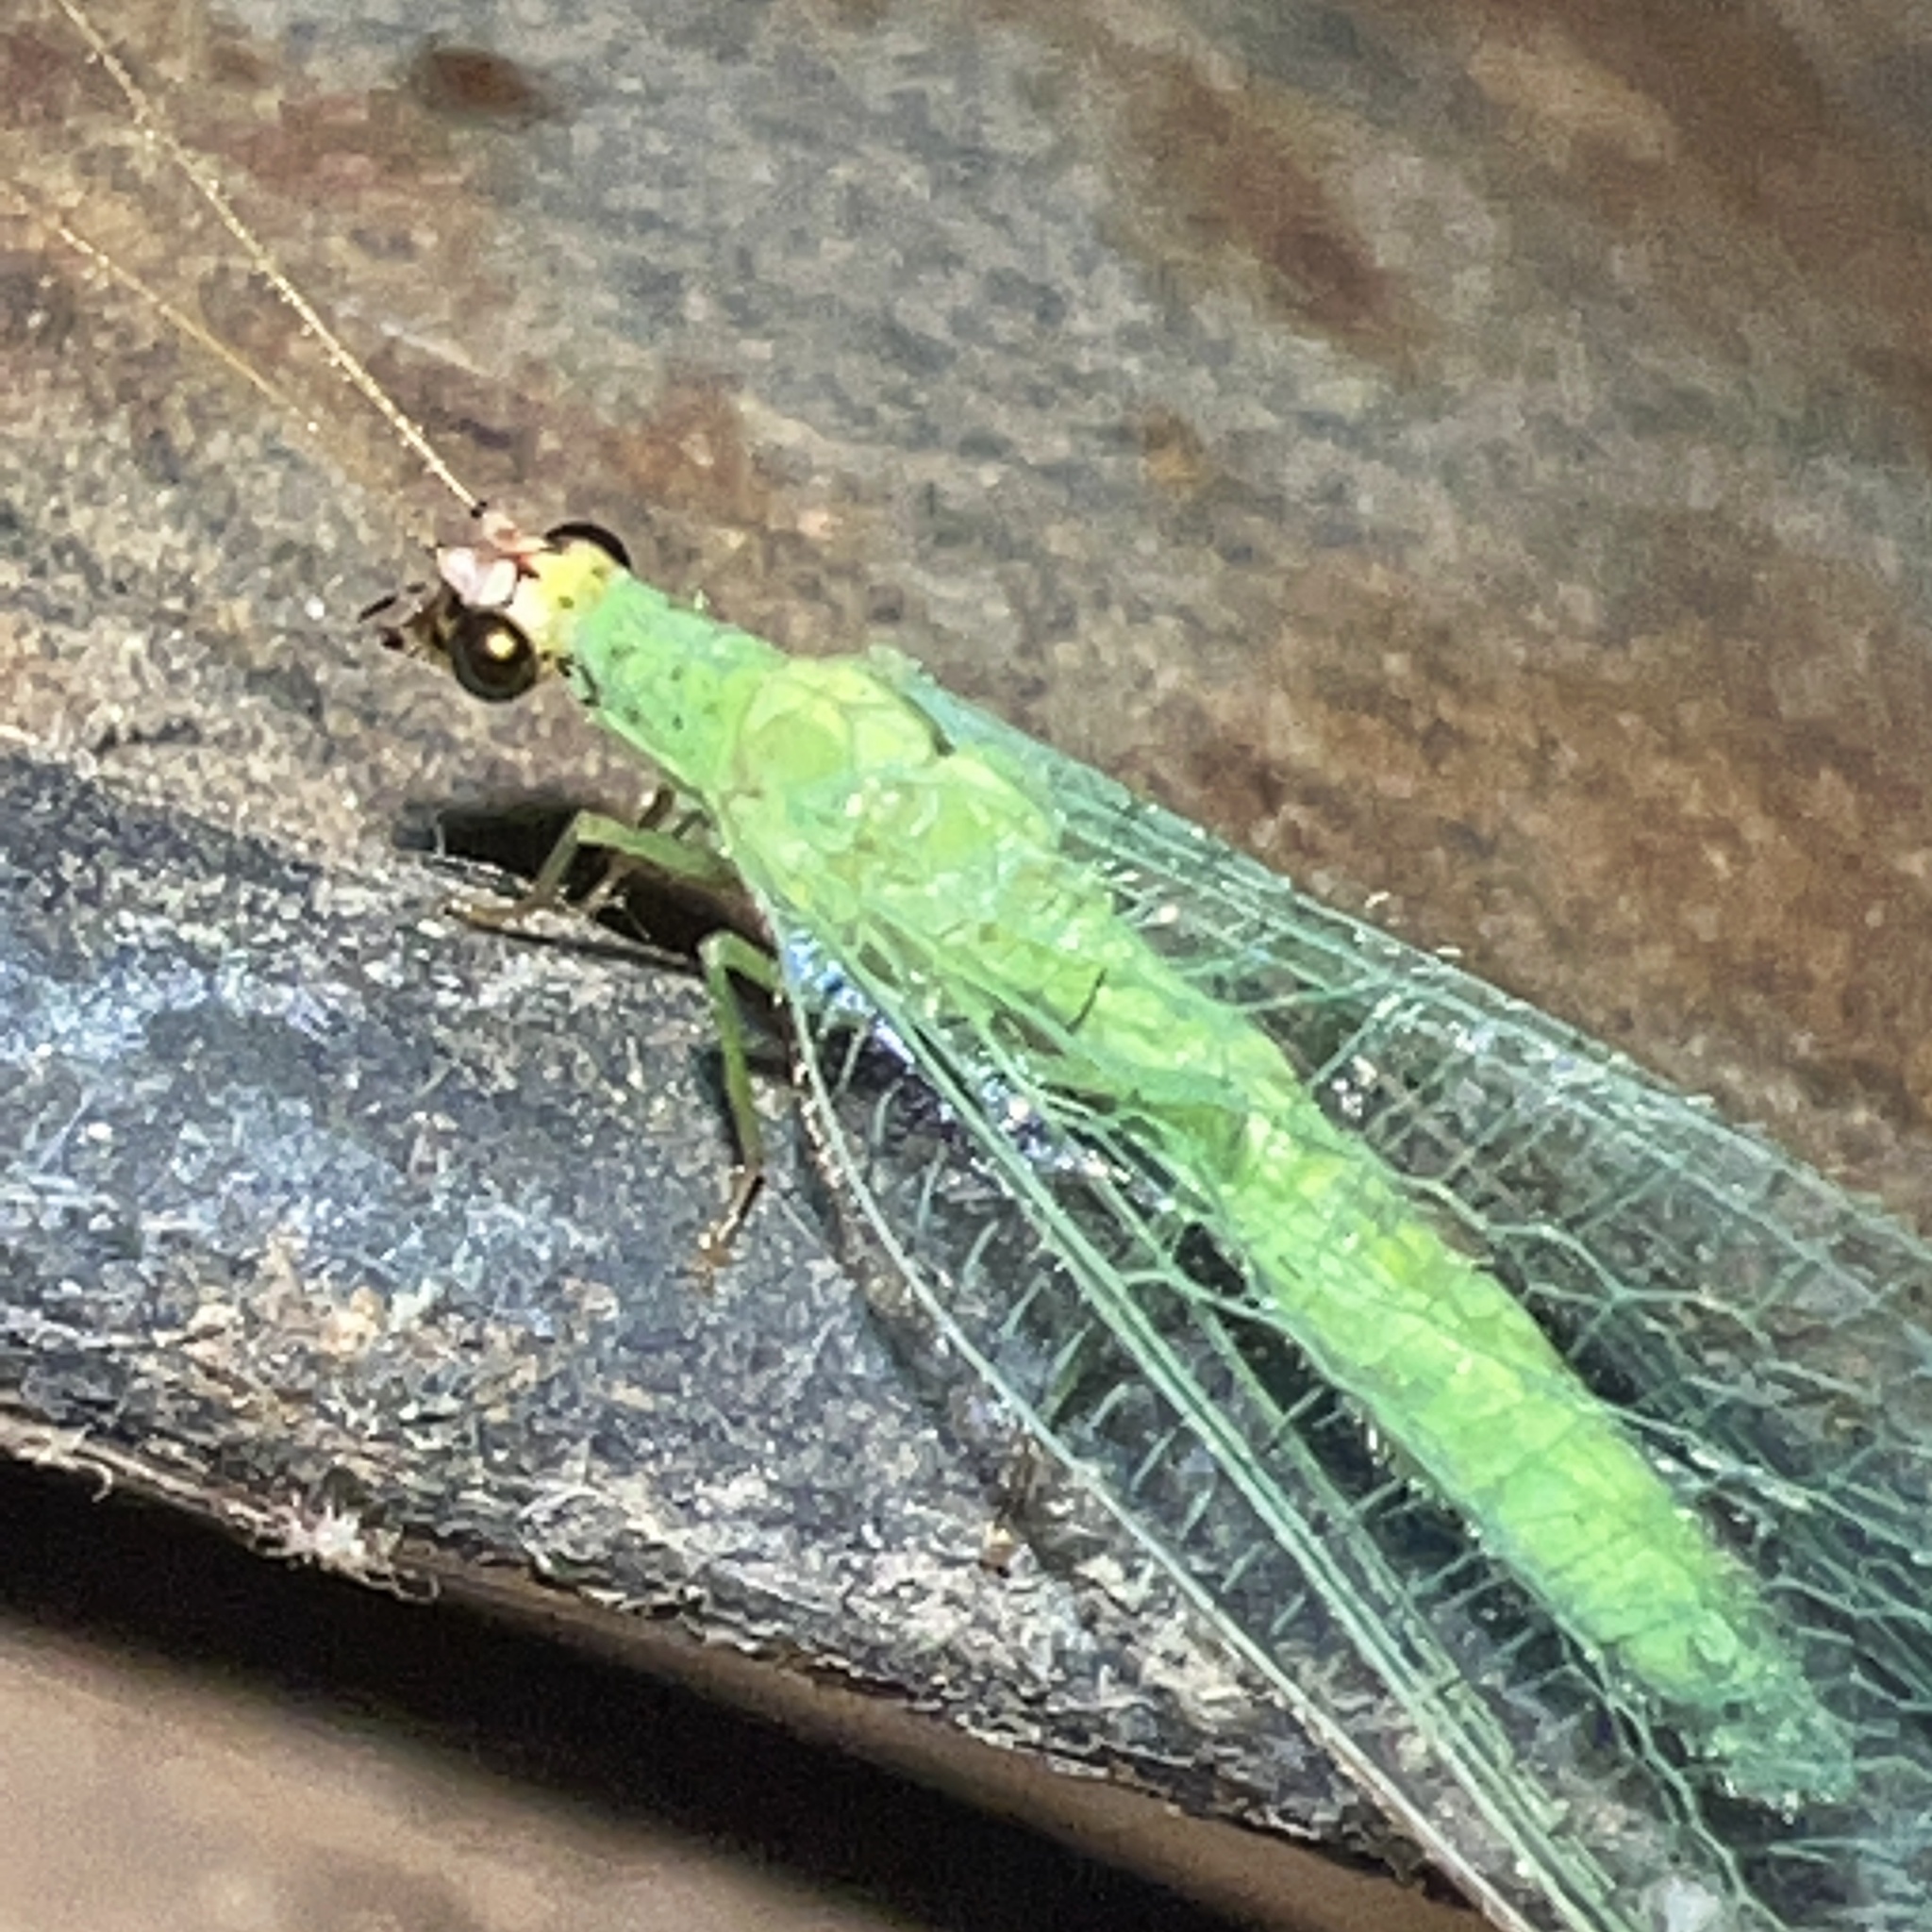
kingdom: Animalia
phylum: Arthropoda
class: Insecta
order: Neuroptera
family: Chrysopidae
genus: Chrysopa
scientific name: Chrysopa oculata
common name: Golden-eyed lacewing
